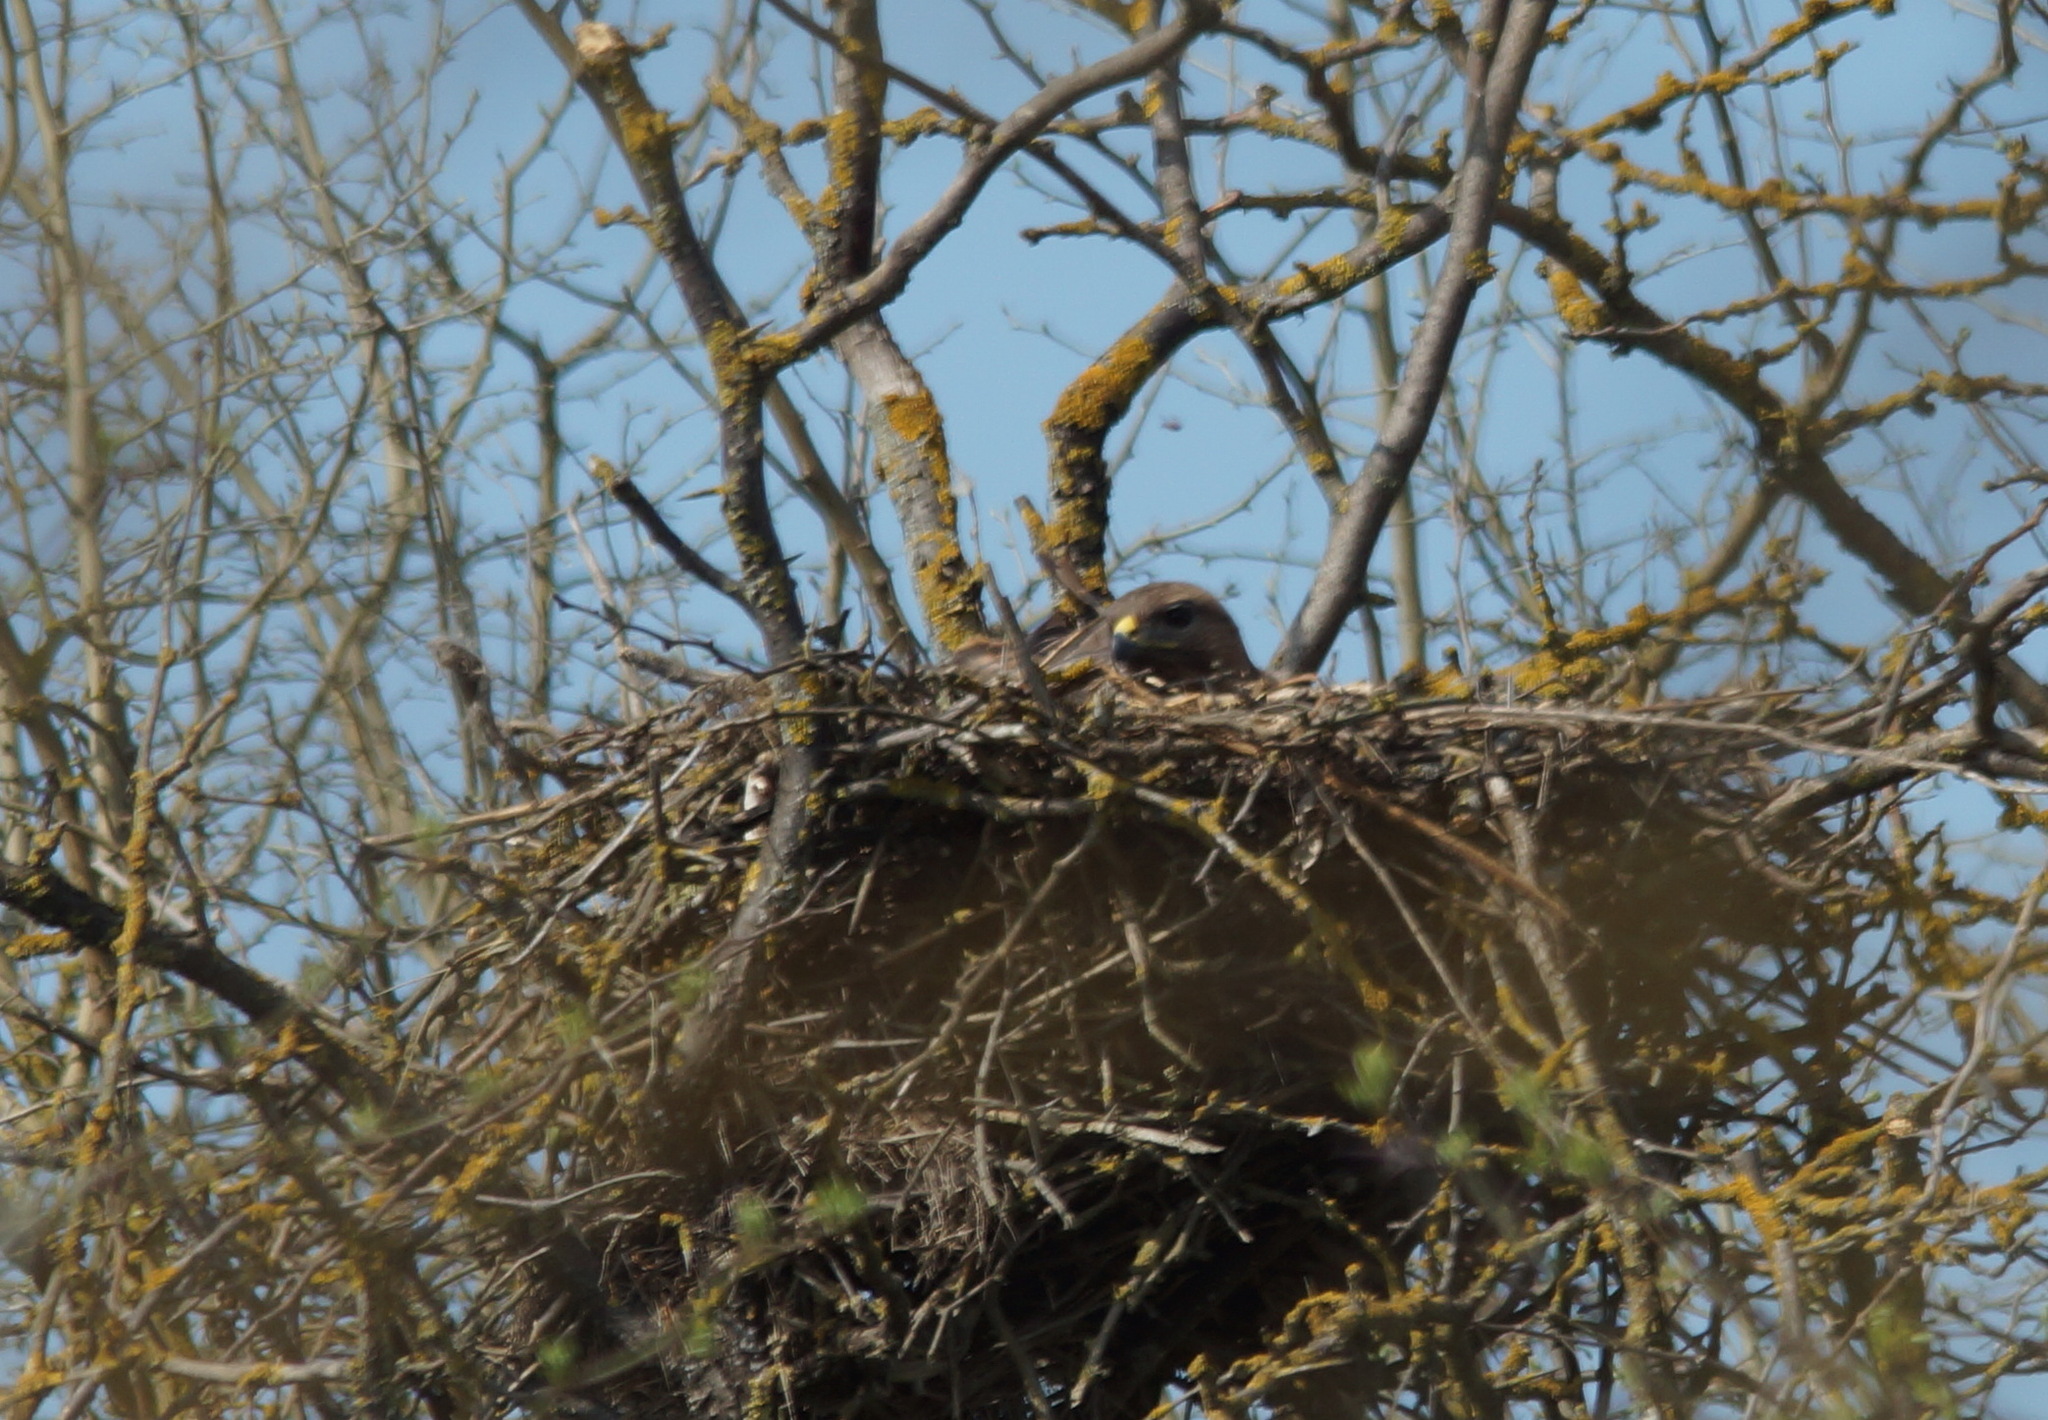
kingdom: Animalia
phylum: Chordata
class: Aves
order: Accipitriformes
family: Accipitridae
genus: Buteo
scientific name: Buteo buteo
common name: Common buzzard
